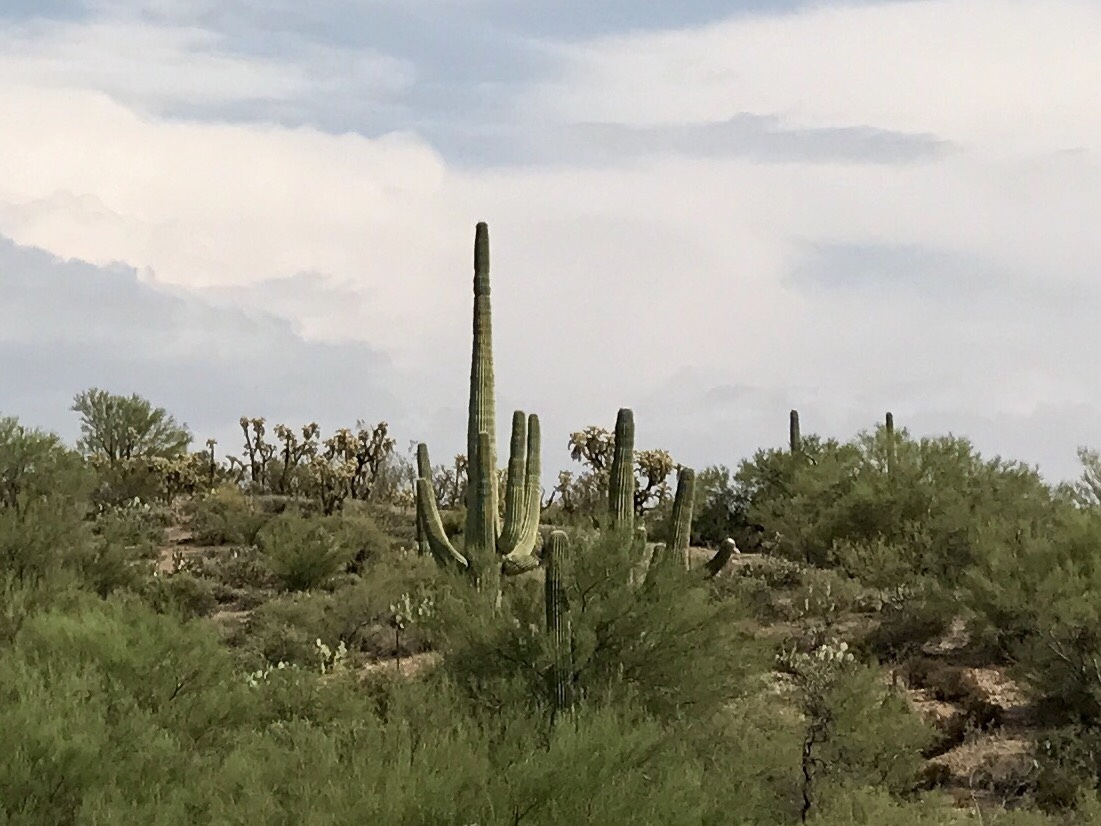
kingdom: Plantae
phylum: Tracheophyta
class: Magnoliopsida
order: Caryophyllales
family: Cactaceae
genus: Carnegiea
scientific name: Carnegiea gigantea
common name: Saguaro
